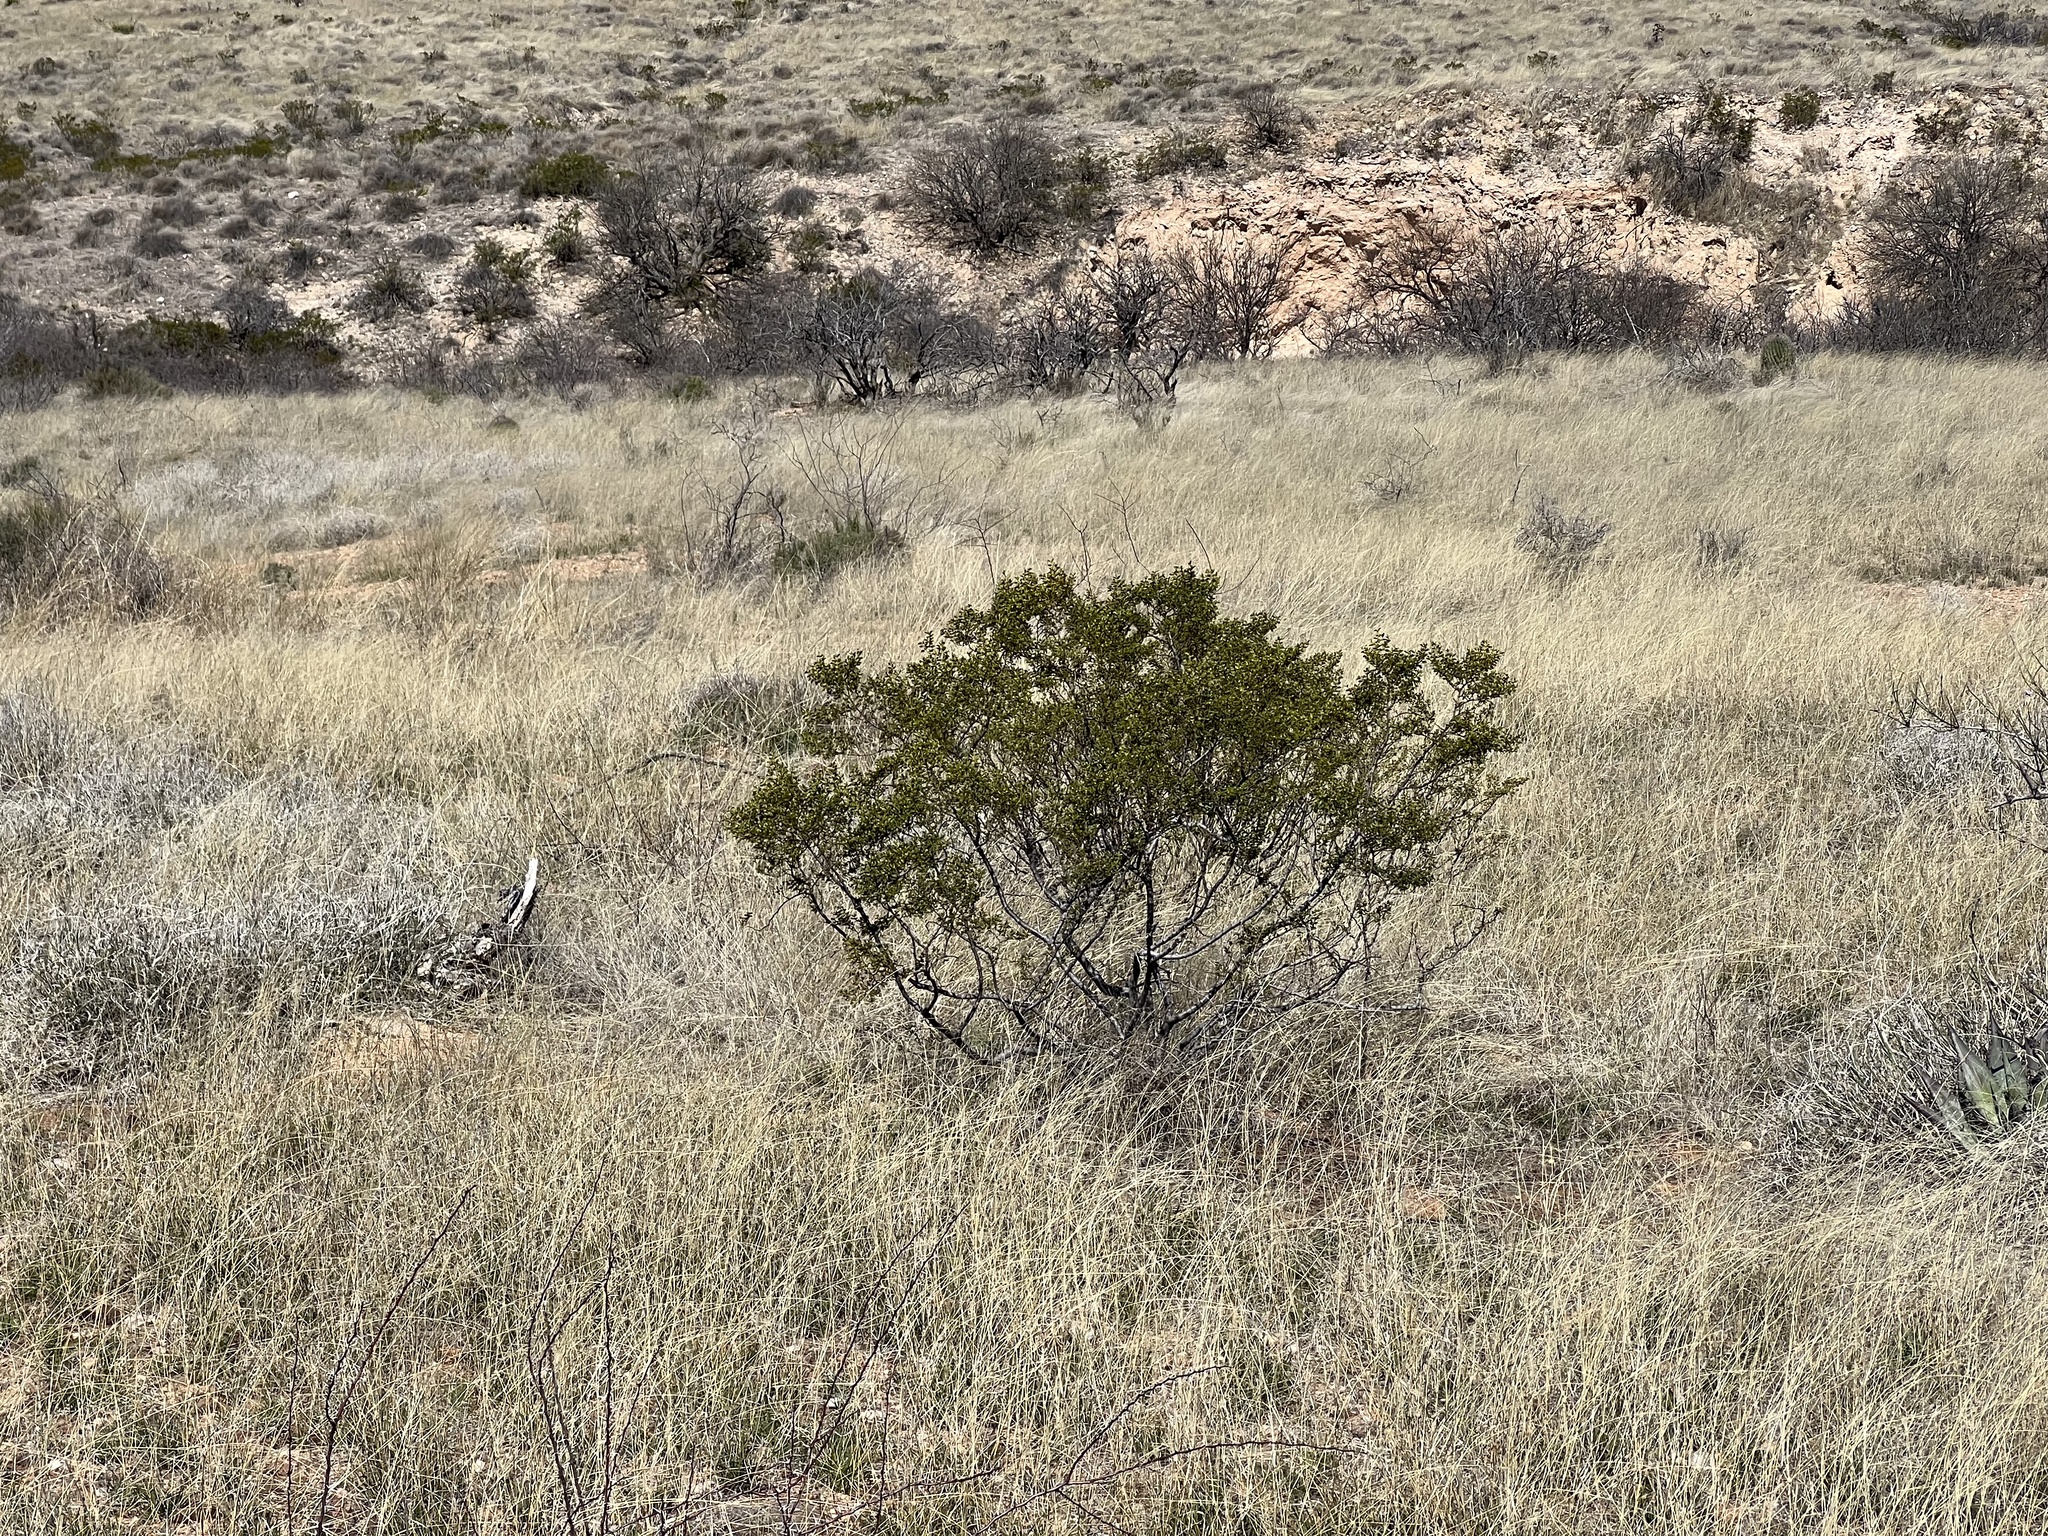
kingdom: Plantae
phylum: Tracheophyta
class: Magnoliopsida
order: Zygophyllales
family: Zygophyllaceae
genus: Larrea
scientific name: Larrea tridentata
